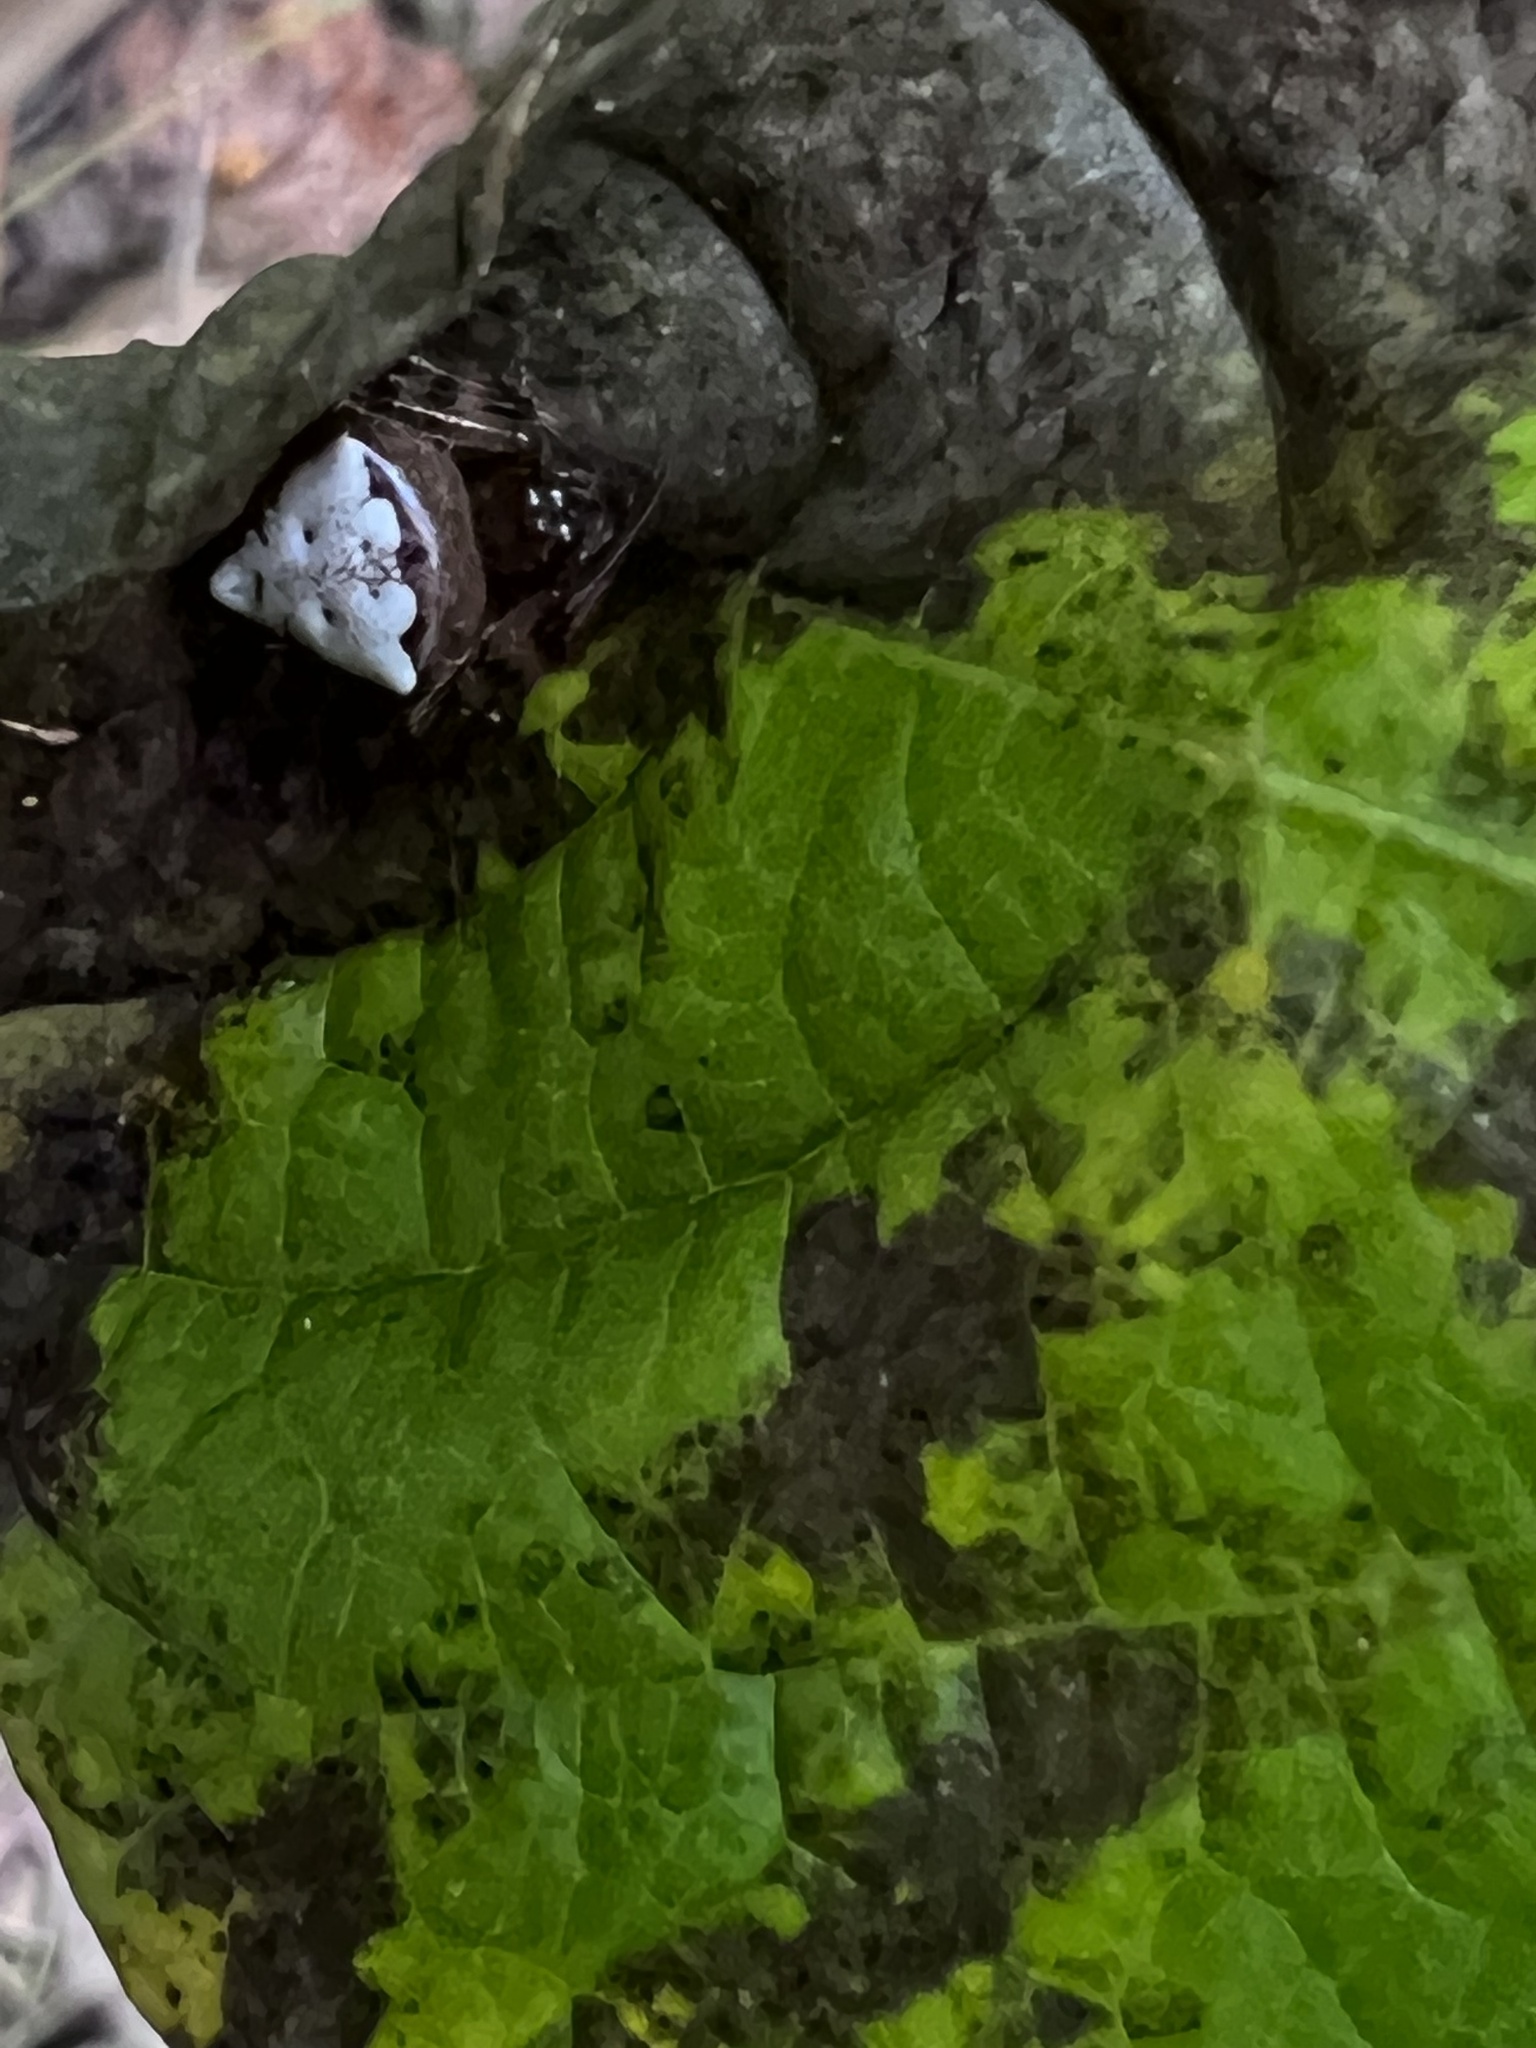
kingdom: Animalia
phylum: Arthropoda
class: Arachnida
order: Araneae
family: Araneidae
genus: Verrucosa
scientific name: Verrucosa arenata
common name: Orb weavers
